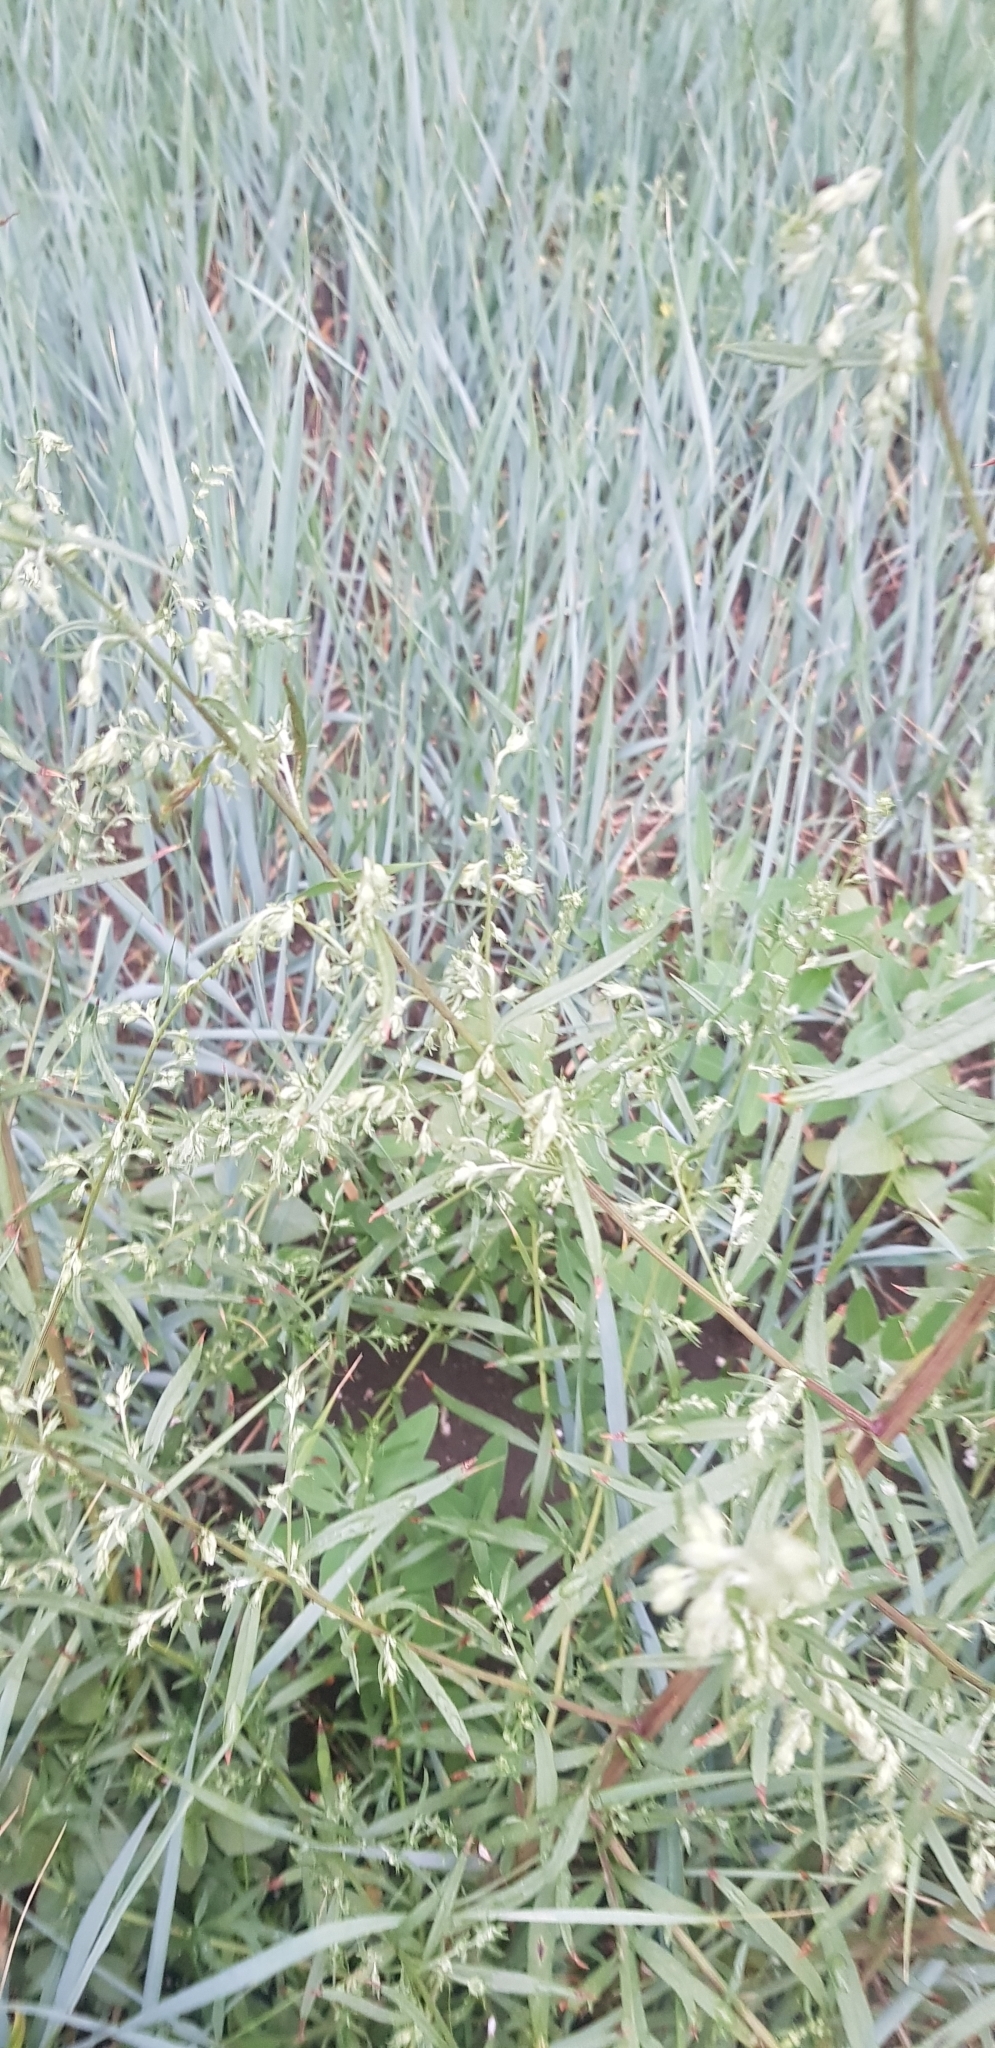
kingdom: Plantae
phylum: Tracheophyta
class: Magnoliopsida
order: Asterales
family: Asteraceae
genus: Artemisia
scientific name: Artemisia sieversiana
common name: Sieversian wormwood
